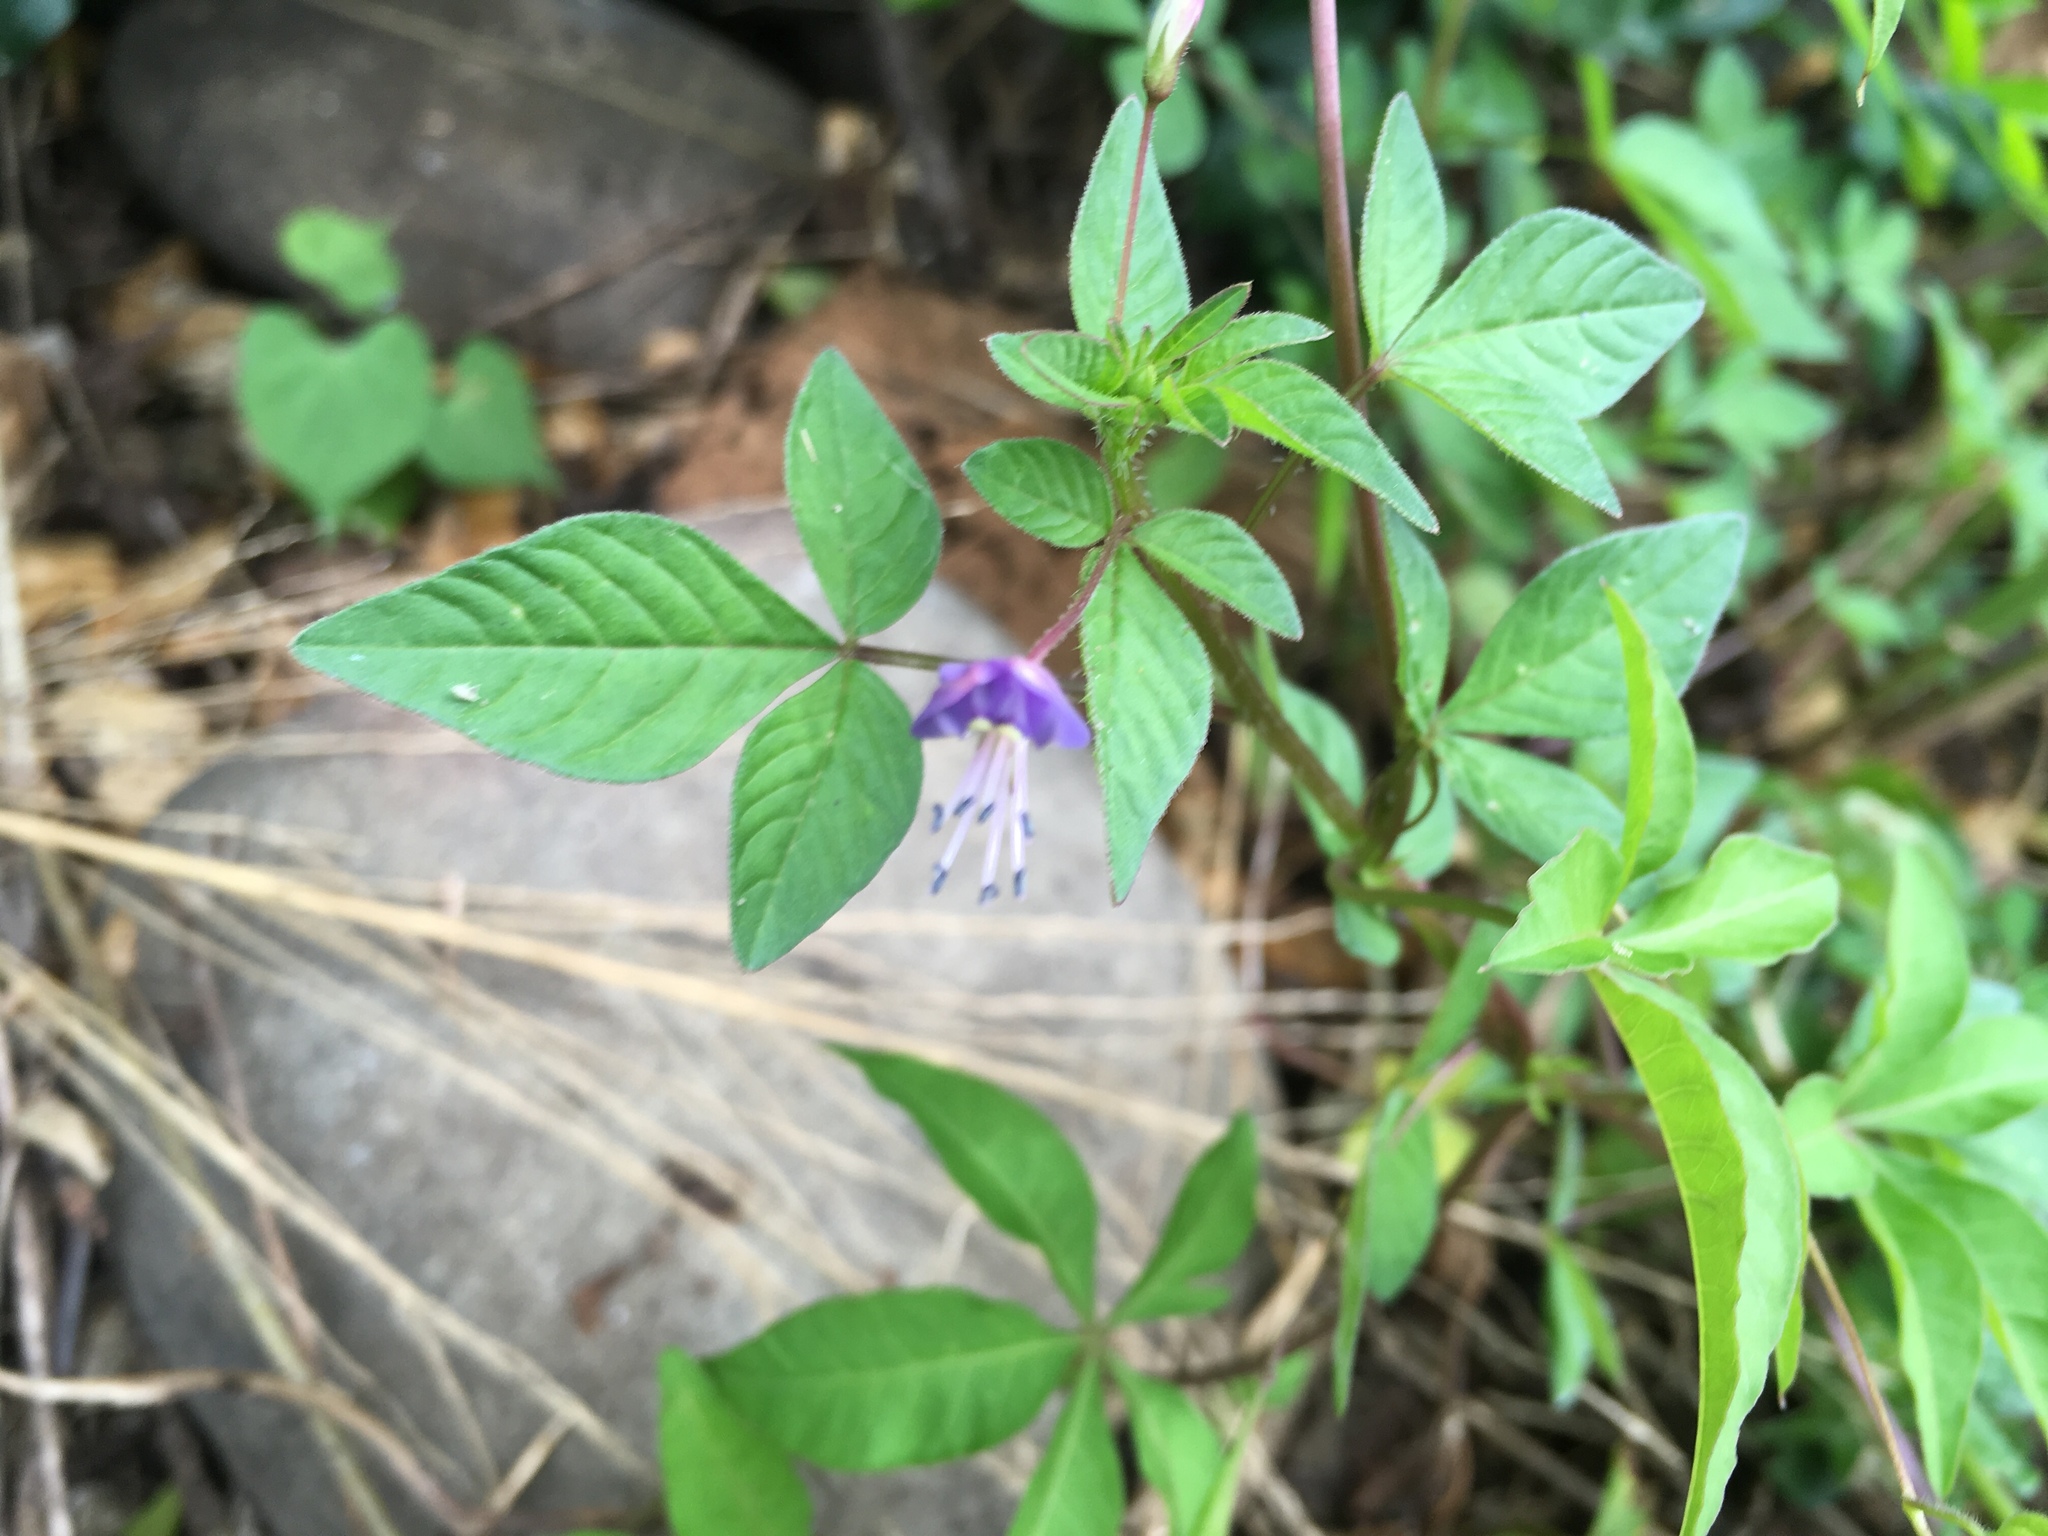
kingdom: Plantae
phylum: Tracheophyta
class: Magnoliopsida
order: Brassicales
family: Cleomaceae
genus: Sieruela
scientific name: Sieruela rutidosperma
